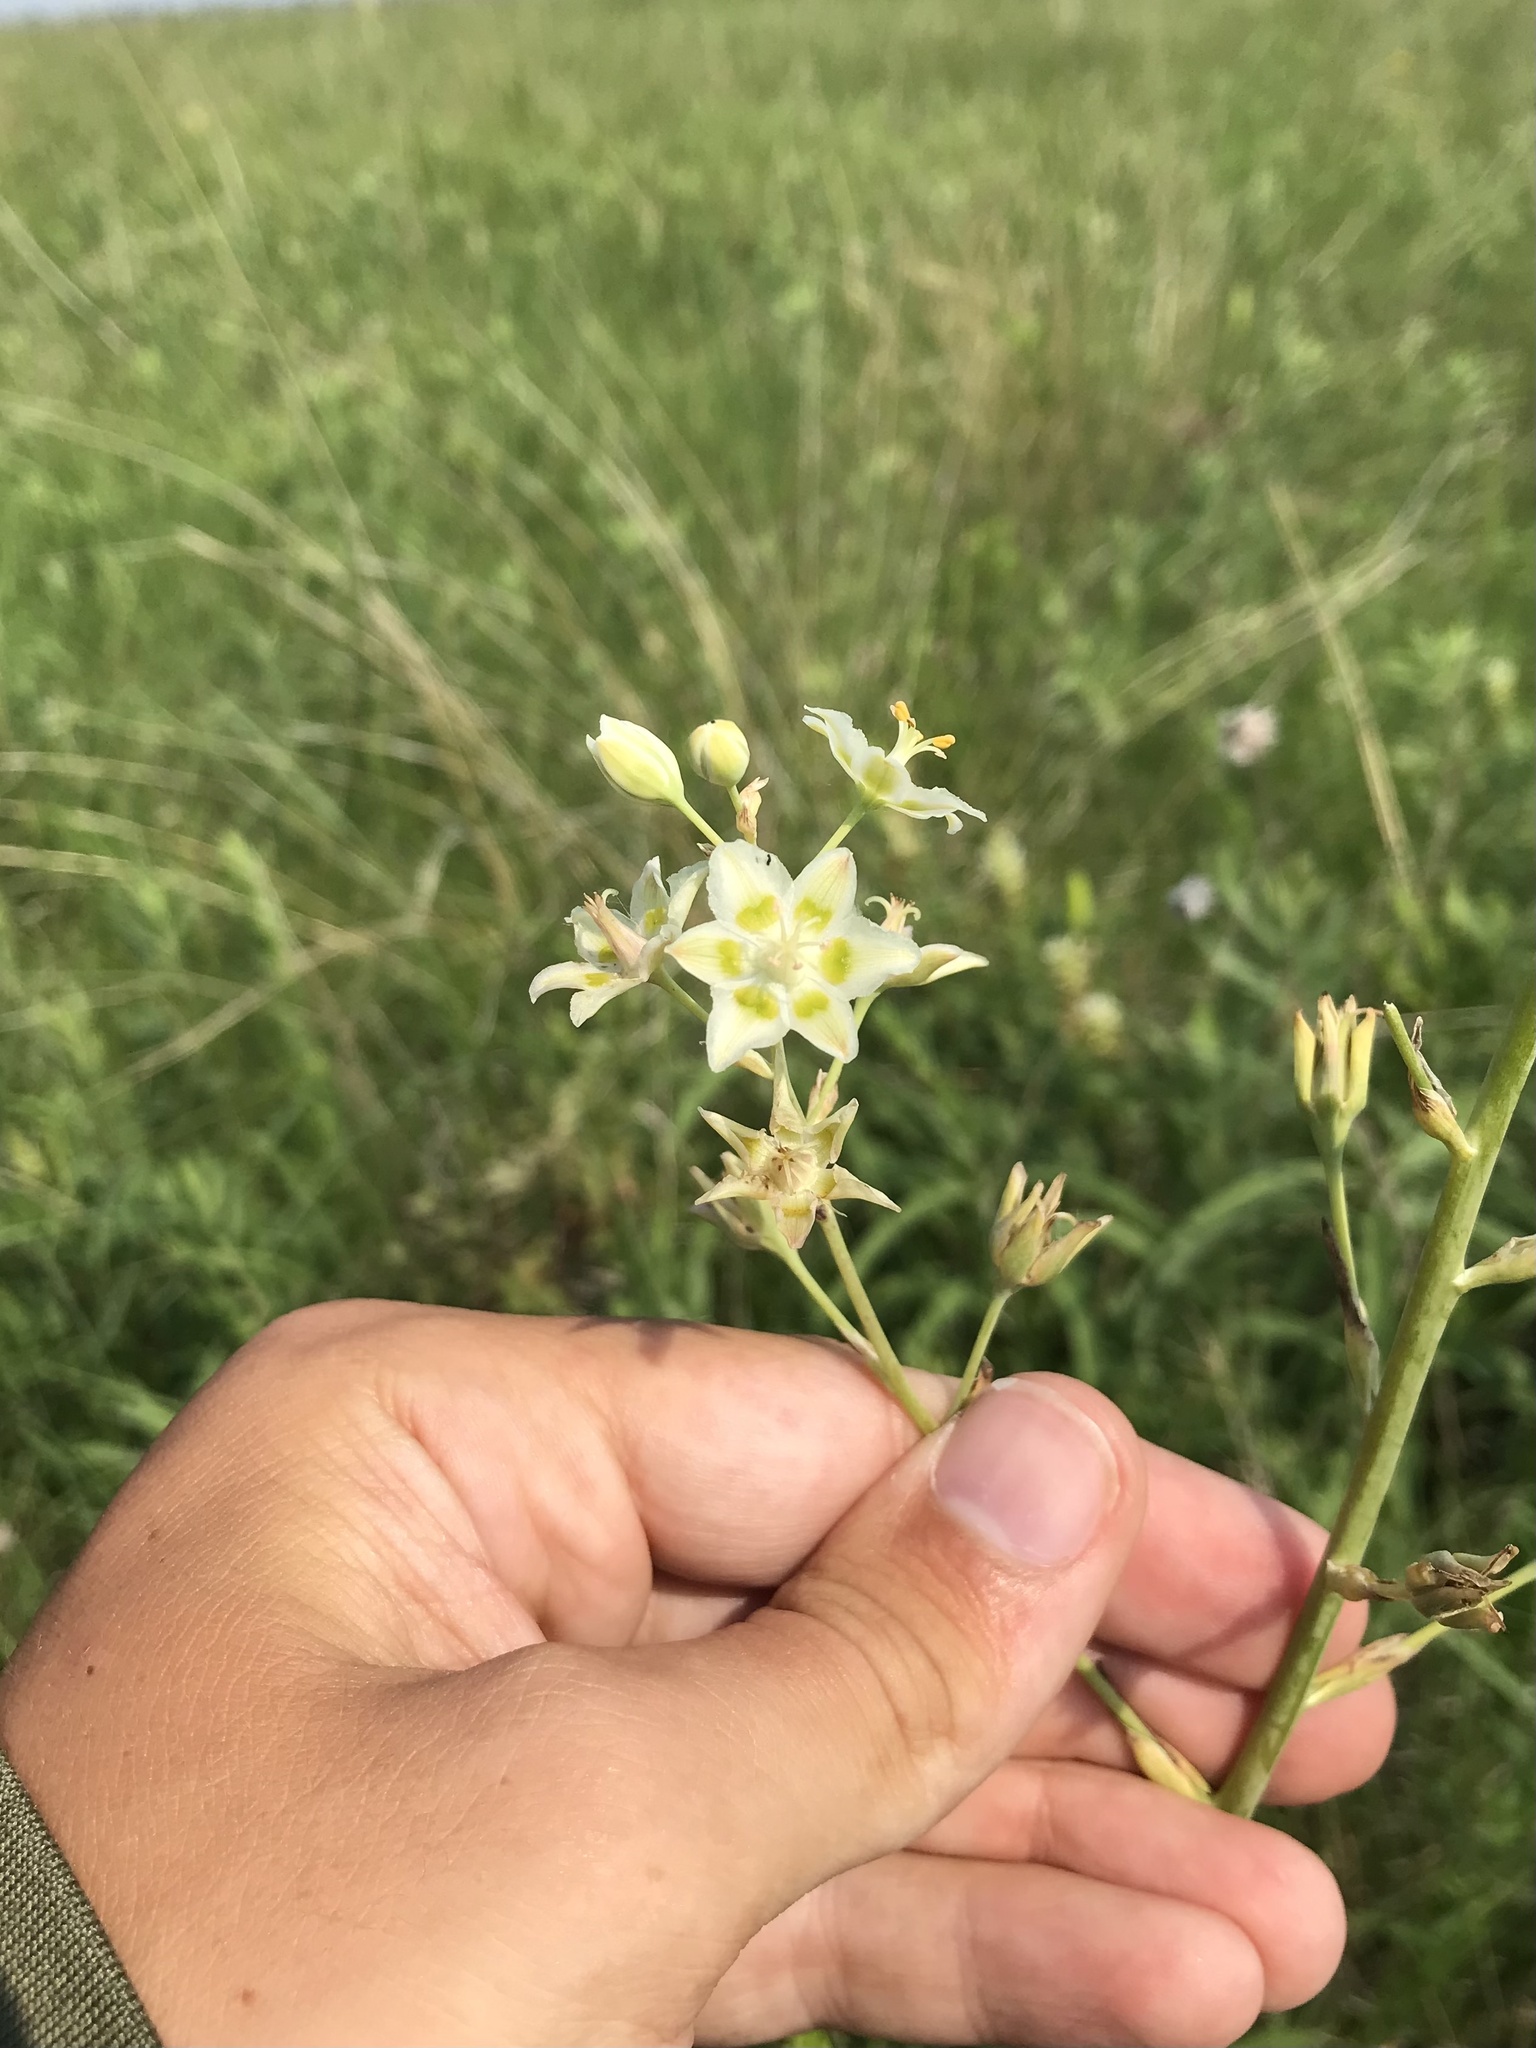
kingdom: Plantae
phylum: Tracheophyta
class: Liliopsida
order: Liliales
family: Melanthiaceae
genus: Anticlea
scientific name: Anticlea elegans
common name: Mountain death camas
